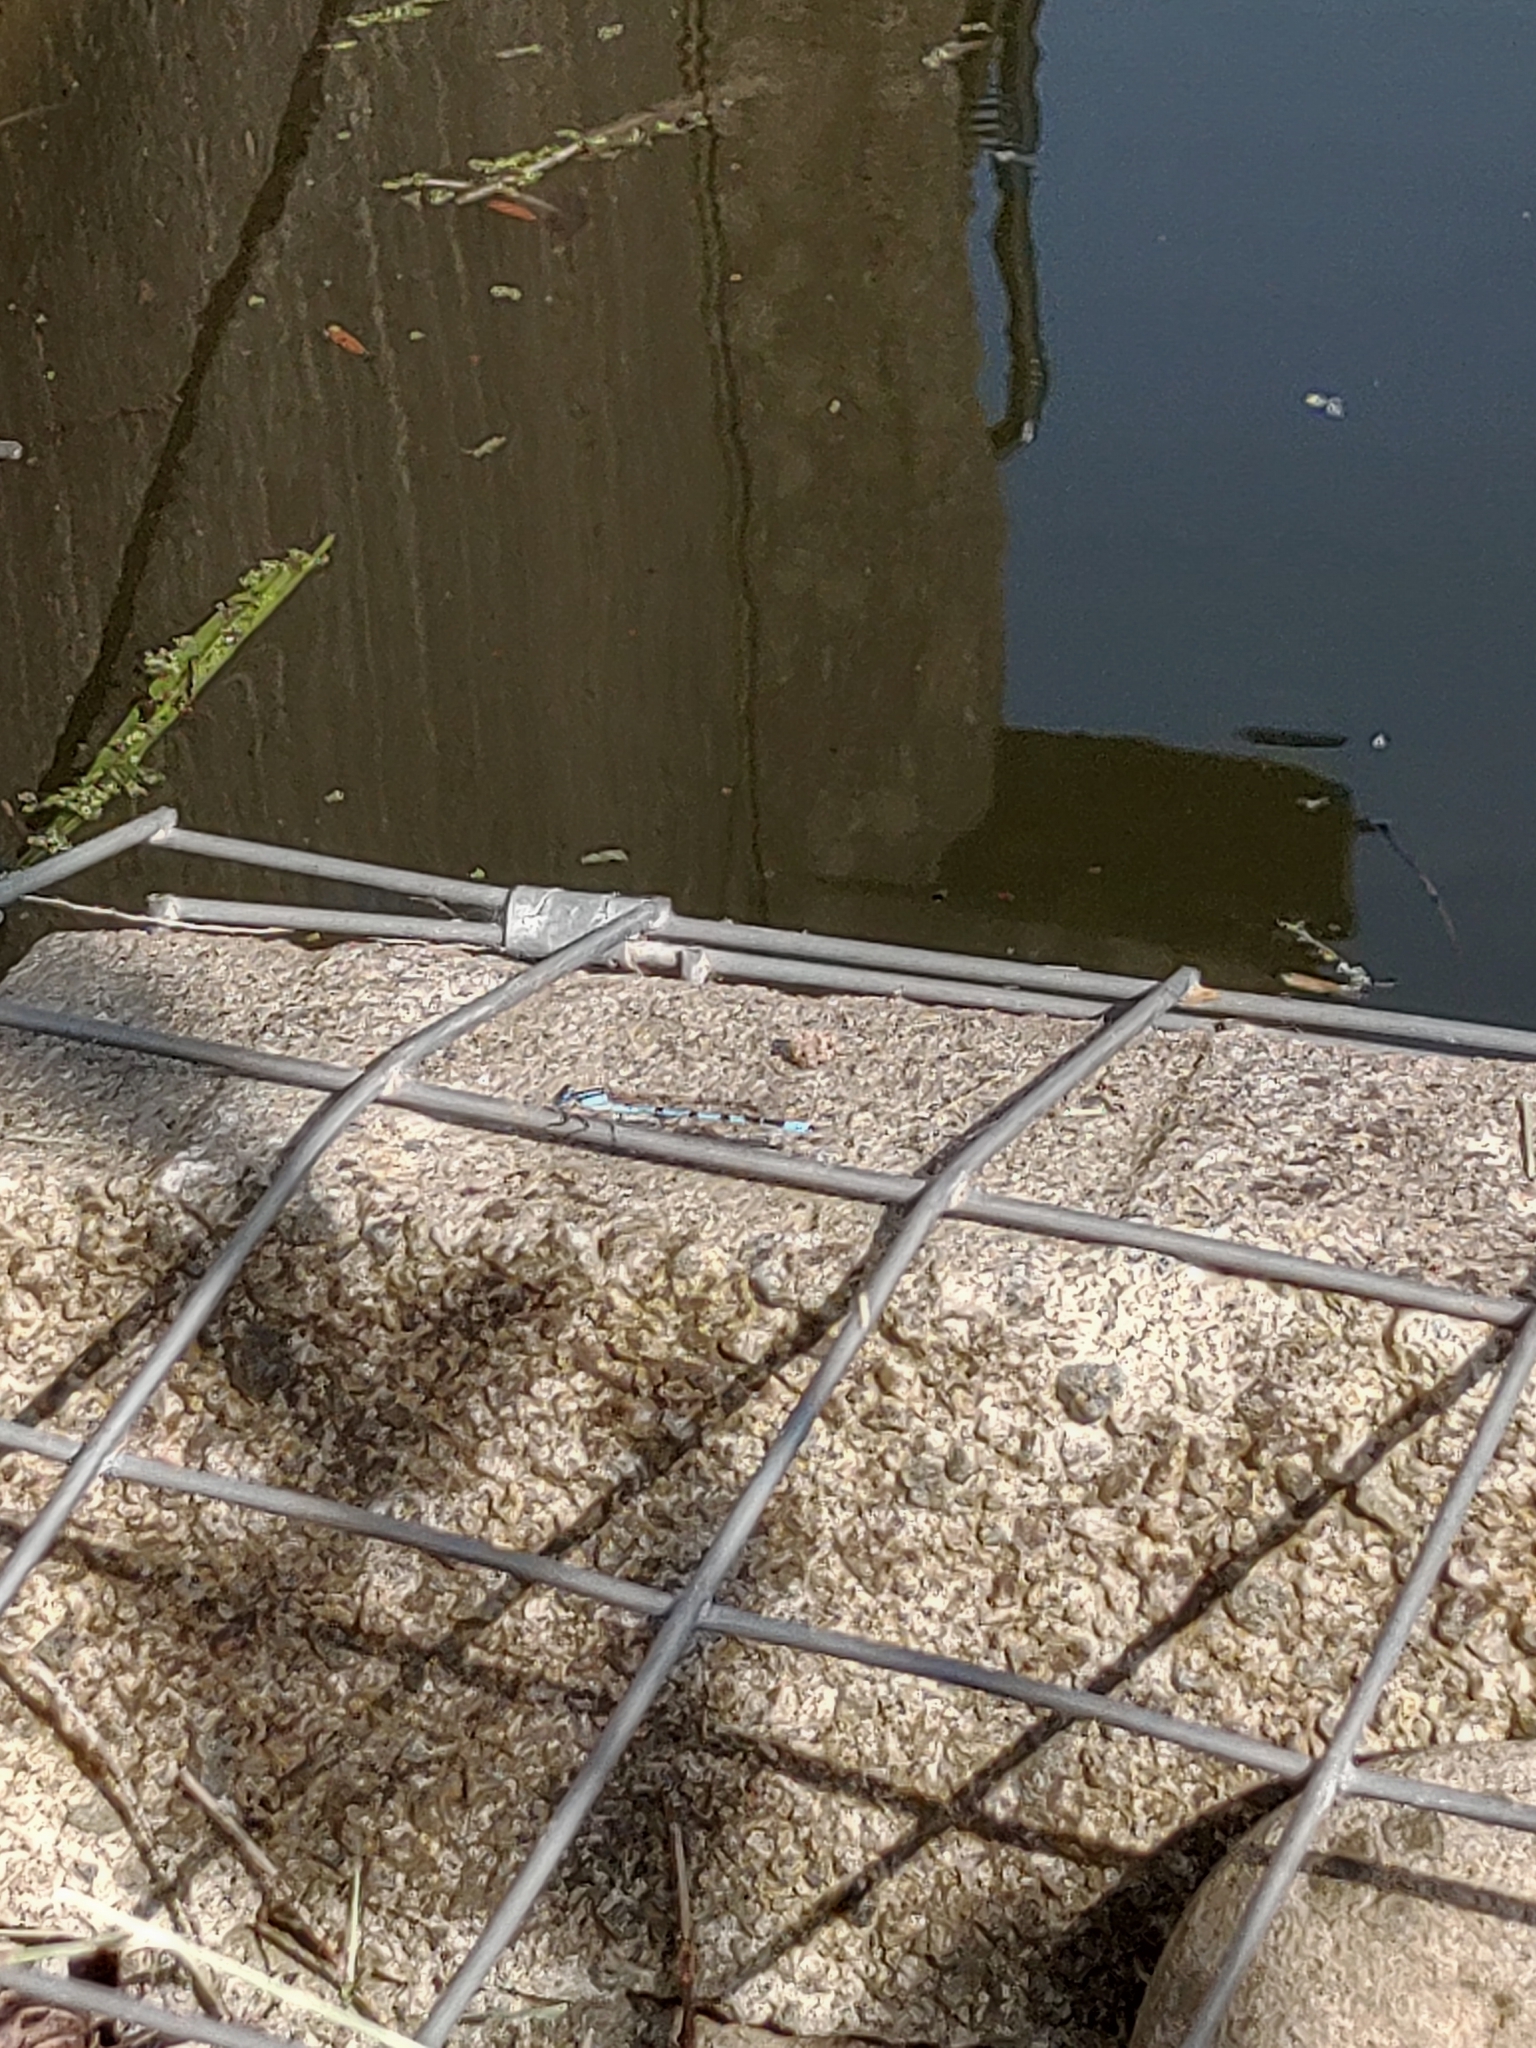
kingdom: Animalia
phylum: Arthropoda
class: Insecta
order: Odonata
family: Coenagrionidae
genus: Enallagma
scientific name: Enallagma cyathigerum
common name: Common blue damselfly
